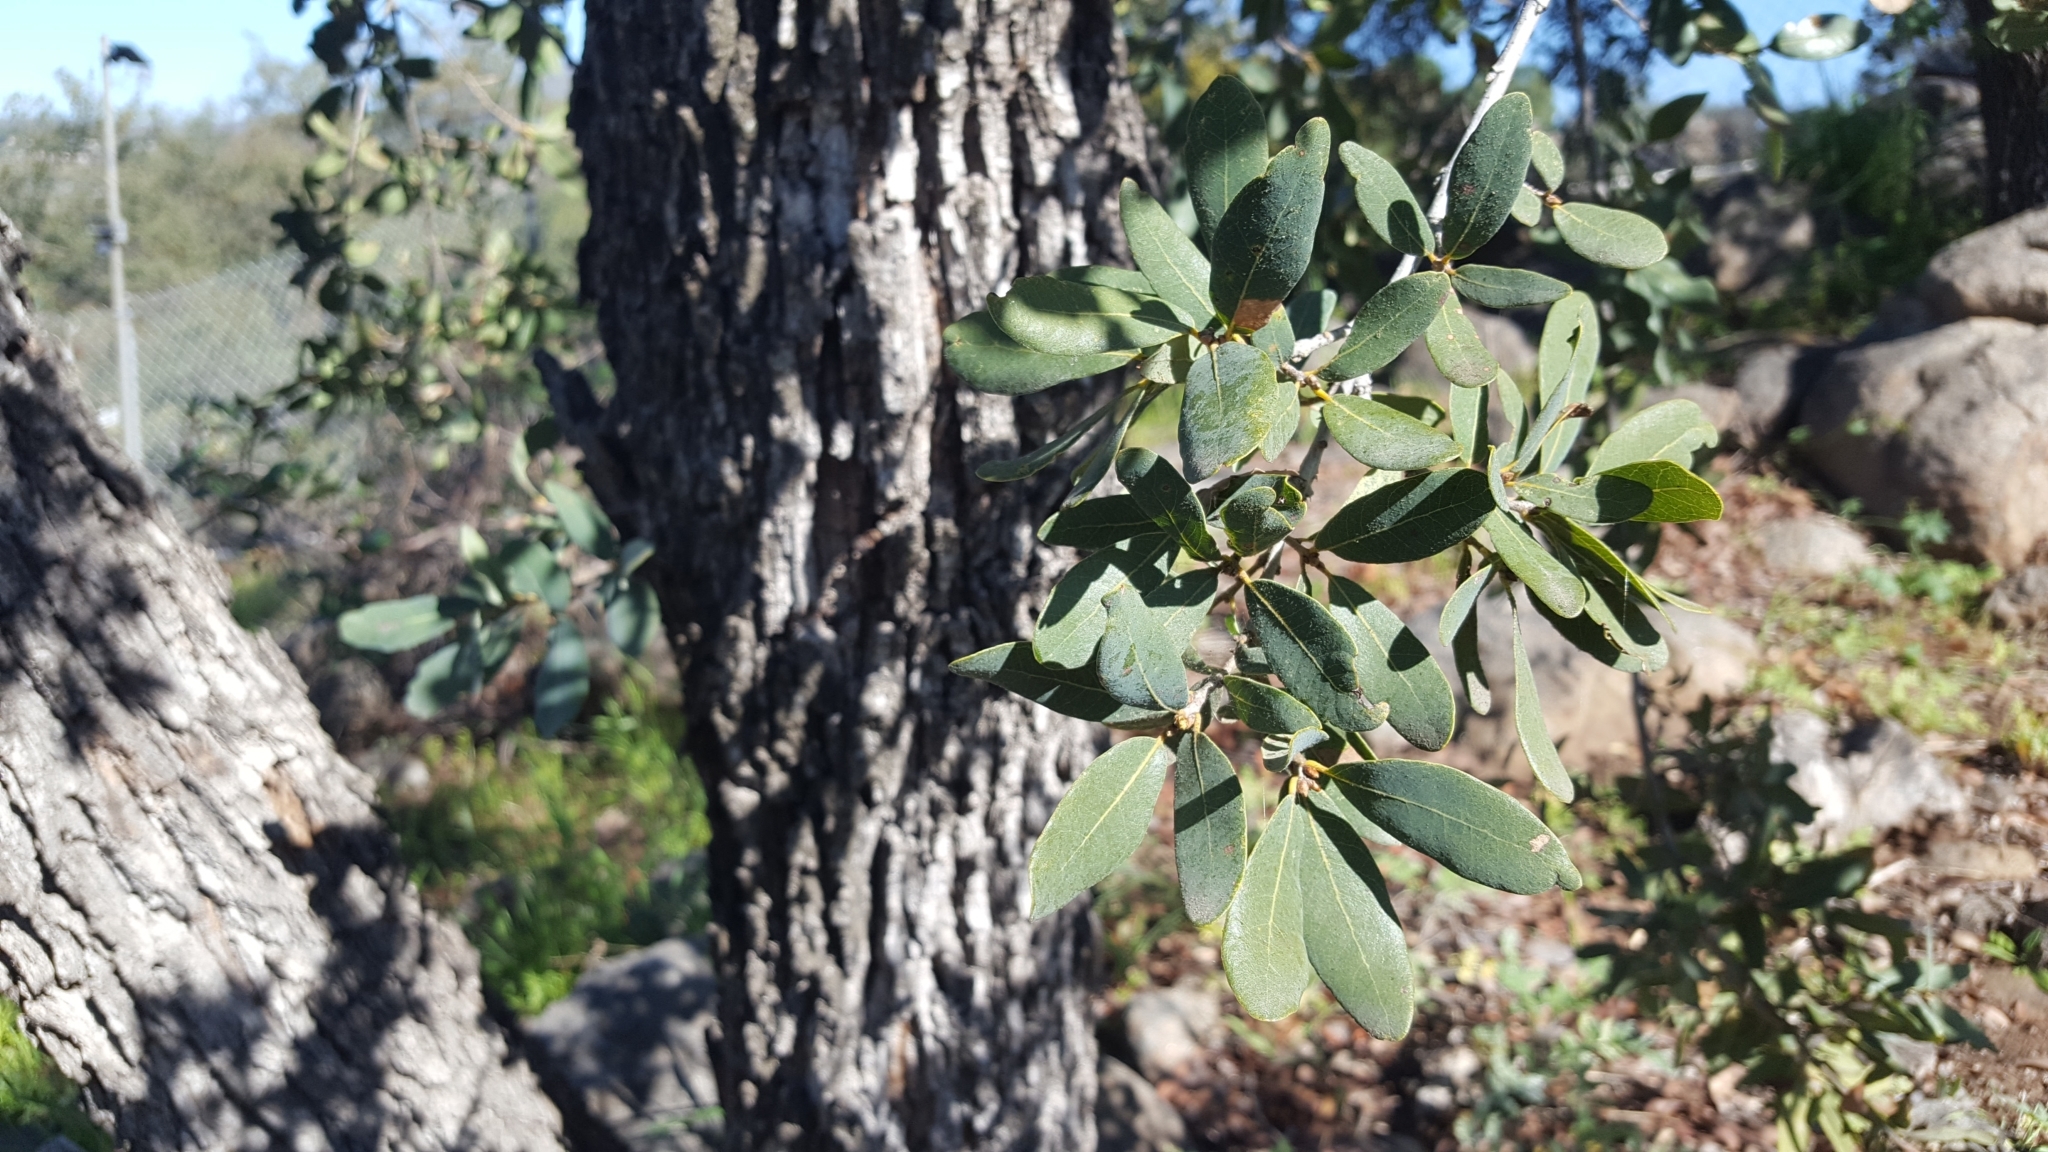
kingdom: Plantae
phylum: Tracheophyta
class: Magnoliopsida
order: Fagales
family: Fagaceae
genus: Quercus
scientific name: Quercus engelmannii
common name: Engelmann oak
